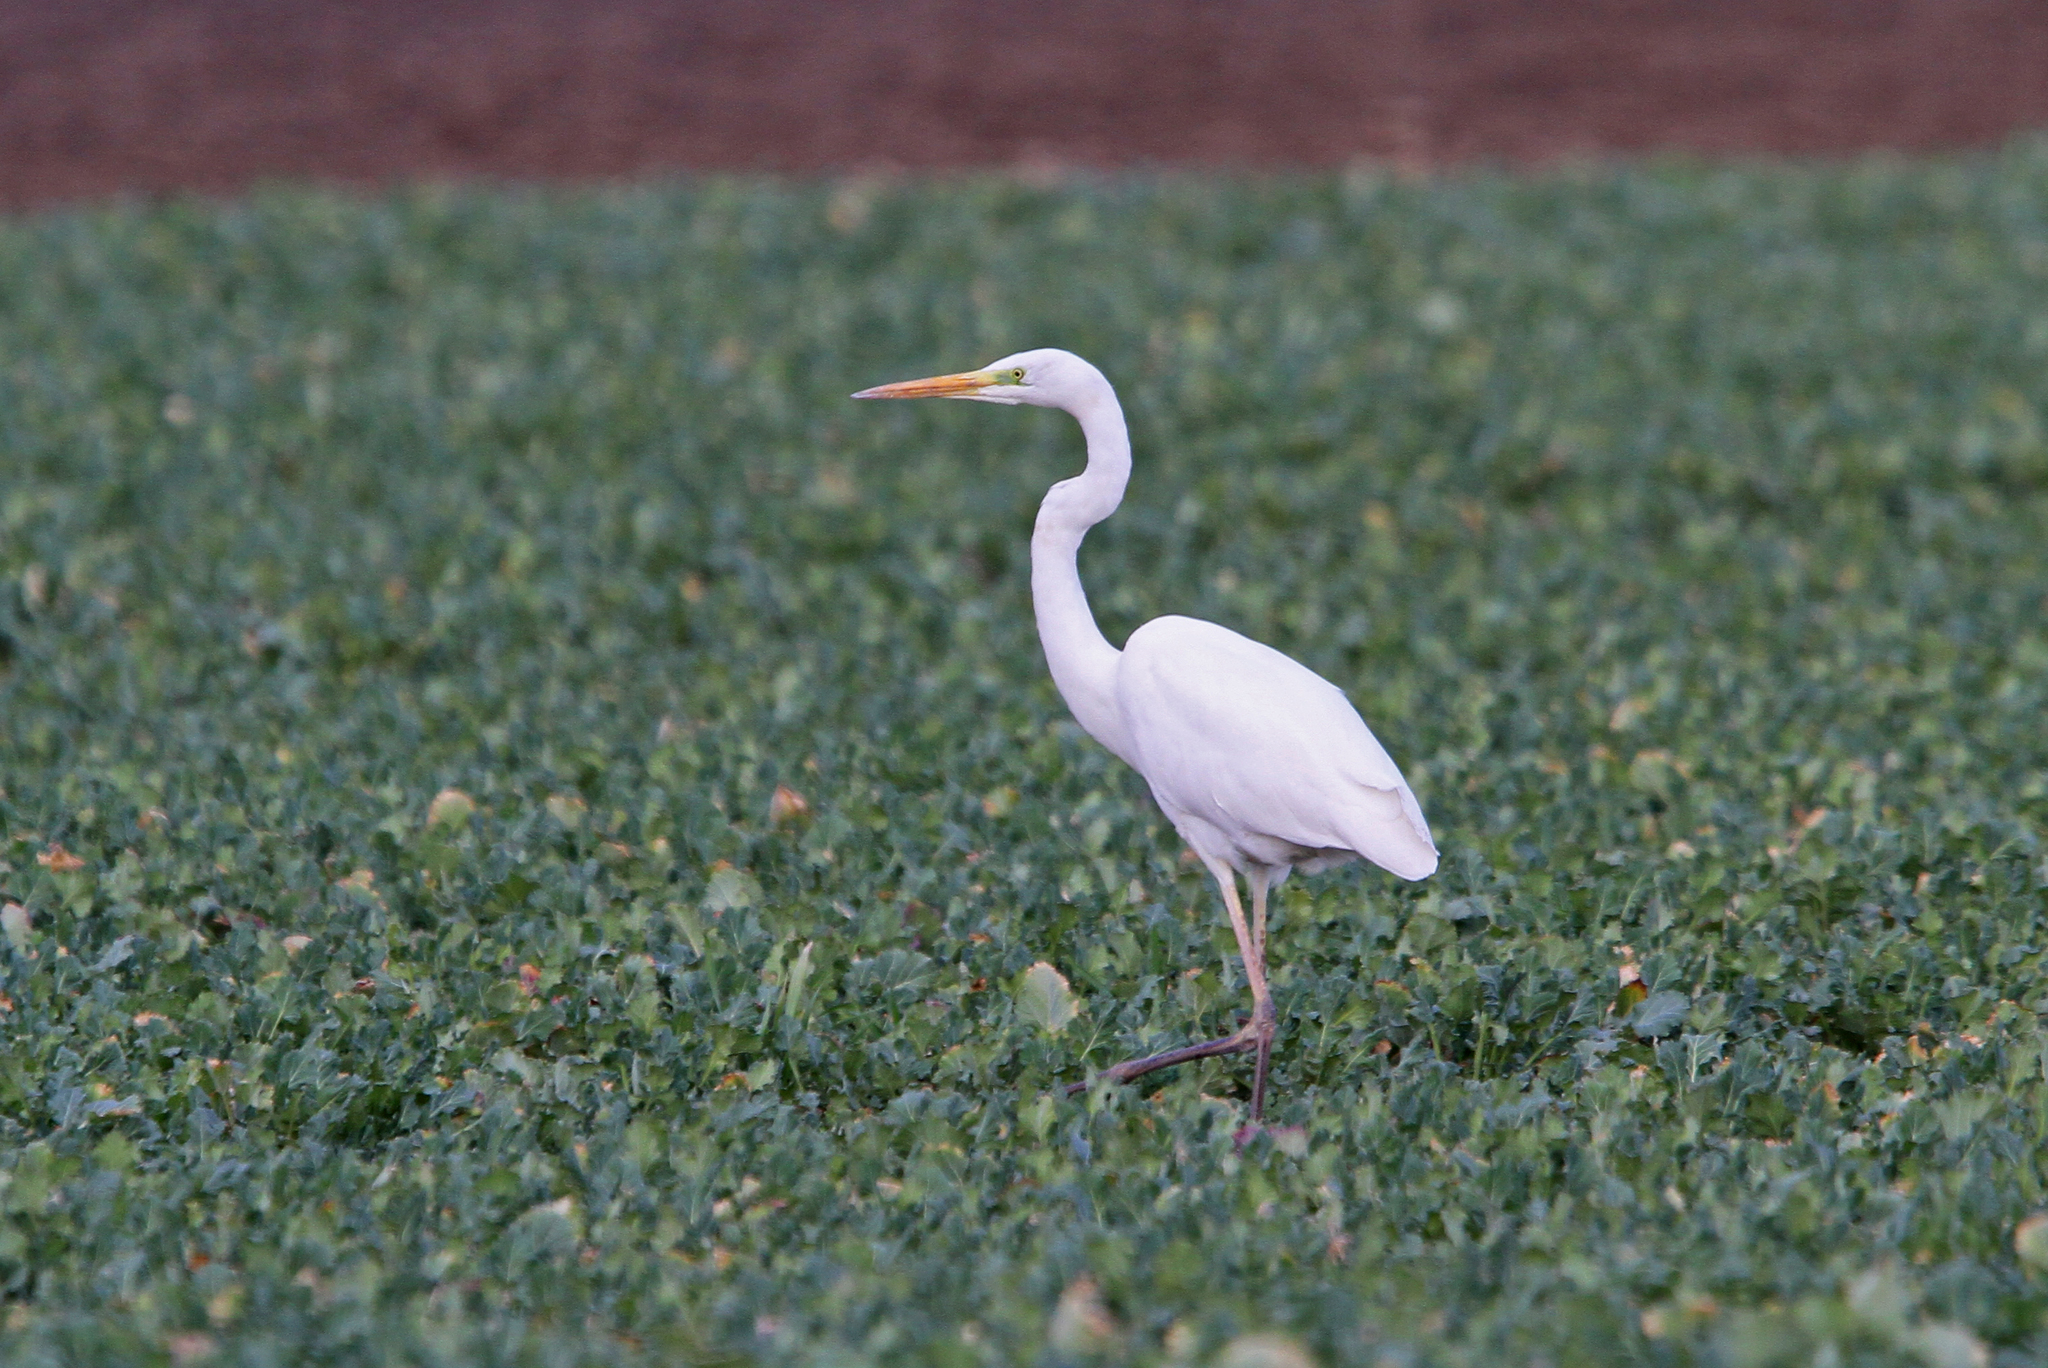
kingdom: Animalia
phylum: Chordata
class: Aves
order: Pelecaniformes
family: Ardeidae
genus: Ardea
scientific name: Ardea alba
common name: Great egret
